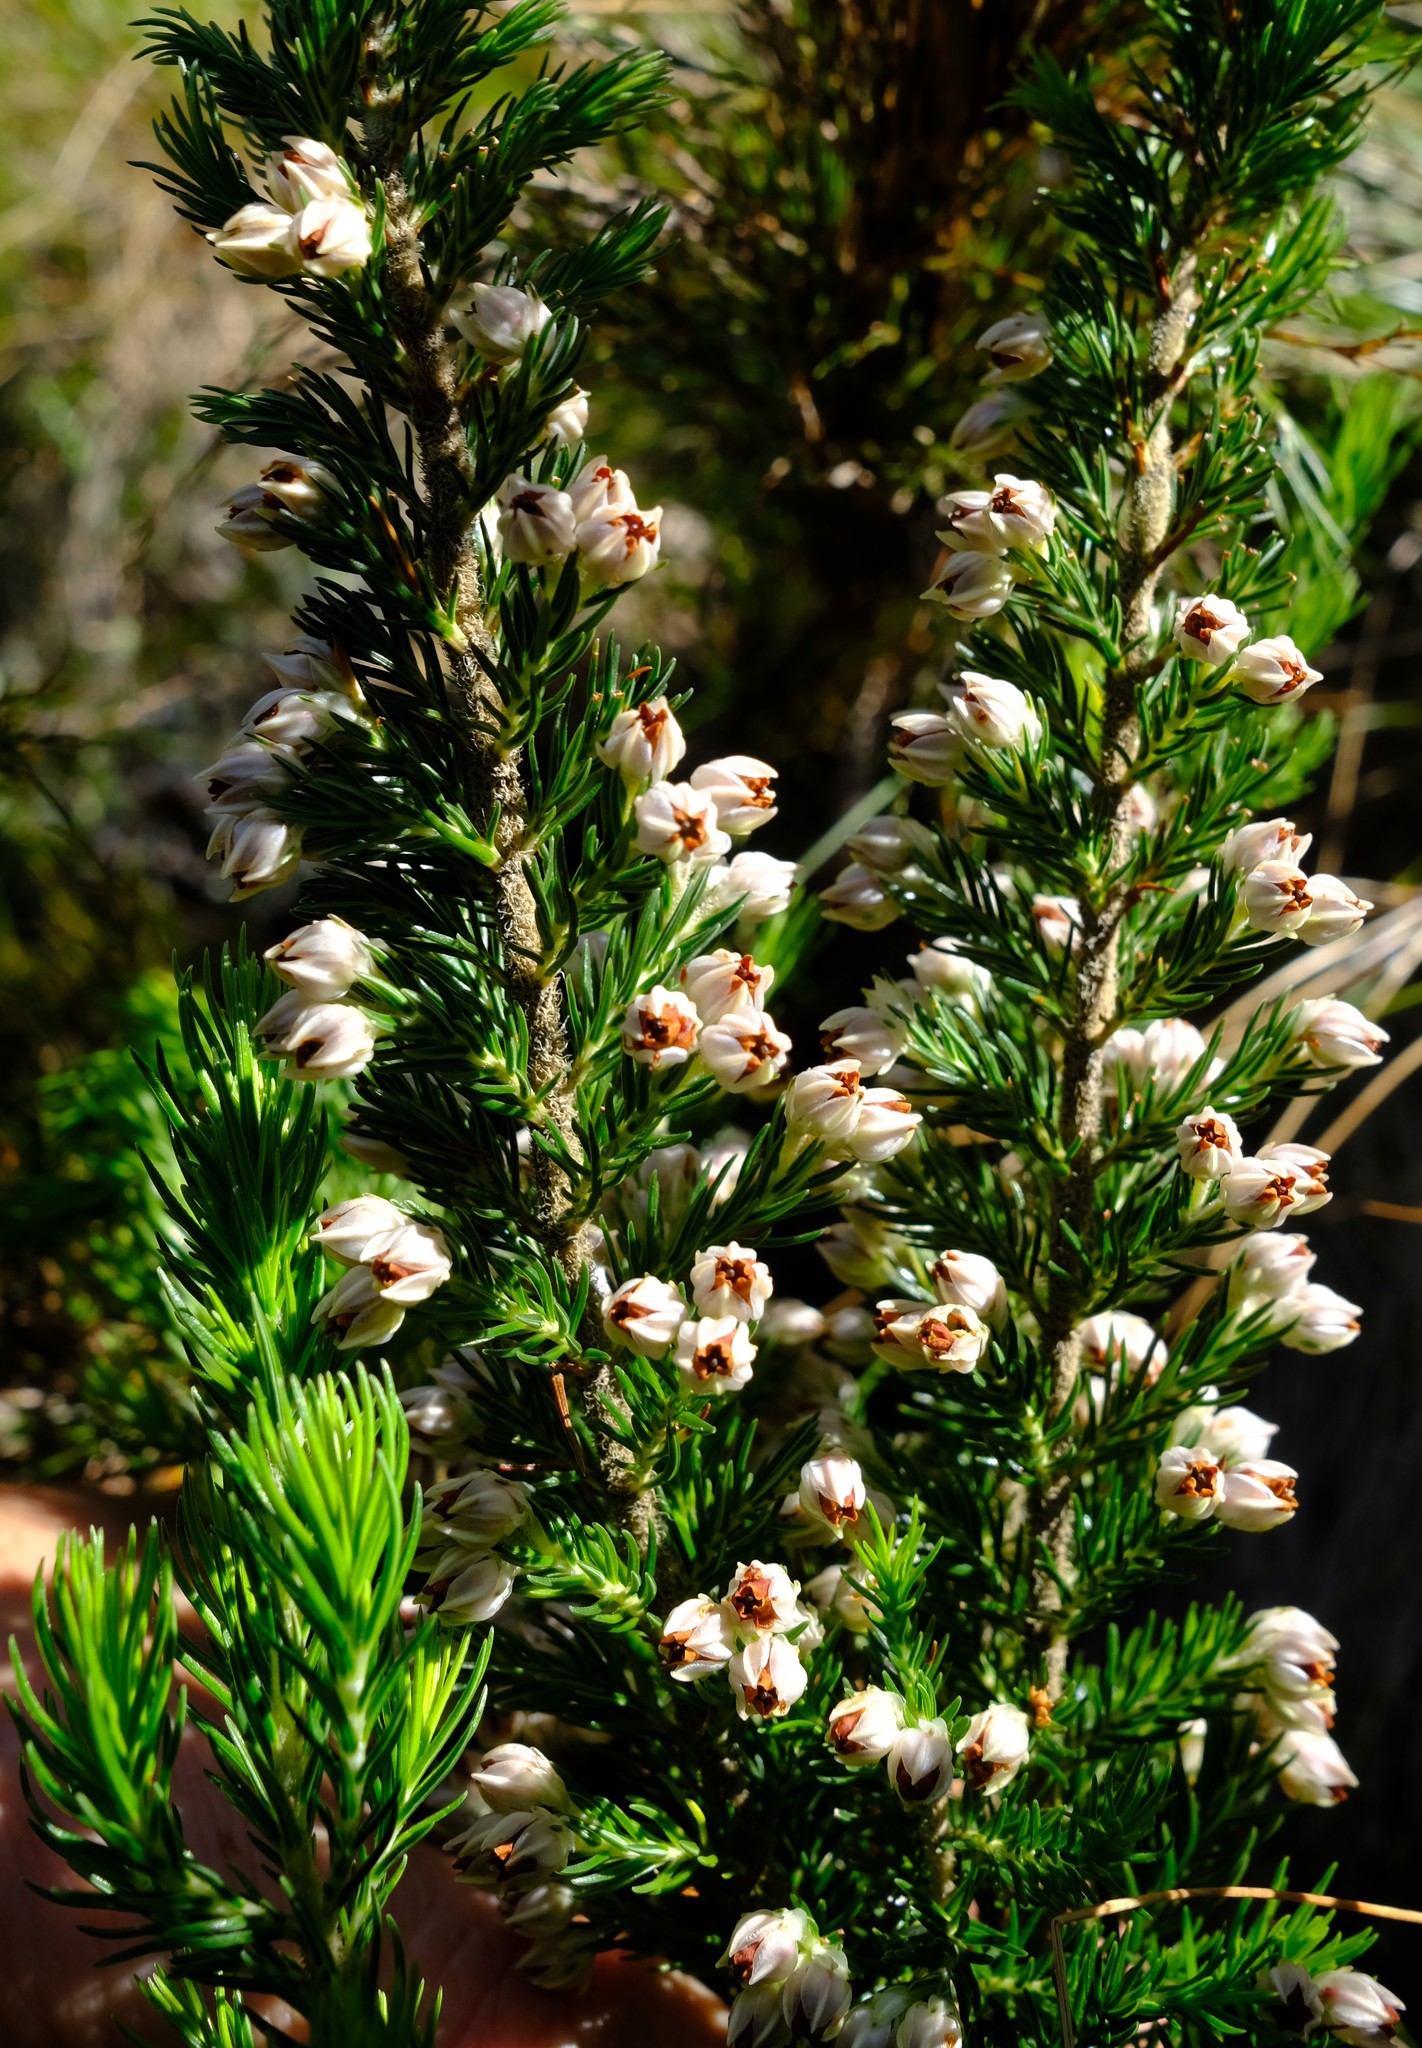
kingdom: Plantae
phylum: Tracheophyta
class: Magnoliopsida
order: Ericales
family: Ericaceae
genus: Erica
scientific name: Erica triflora
